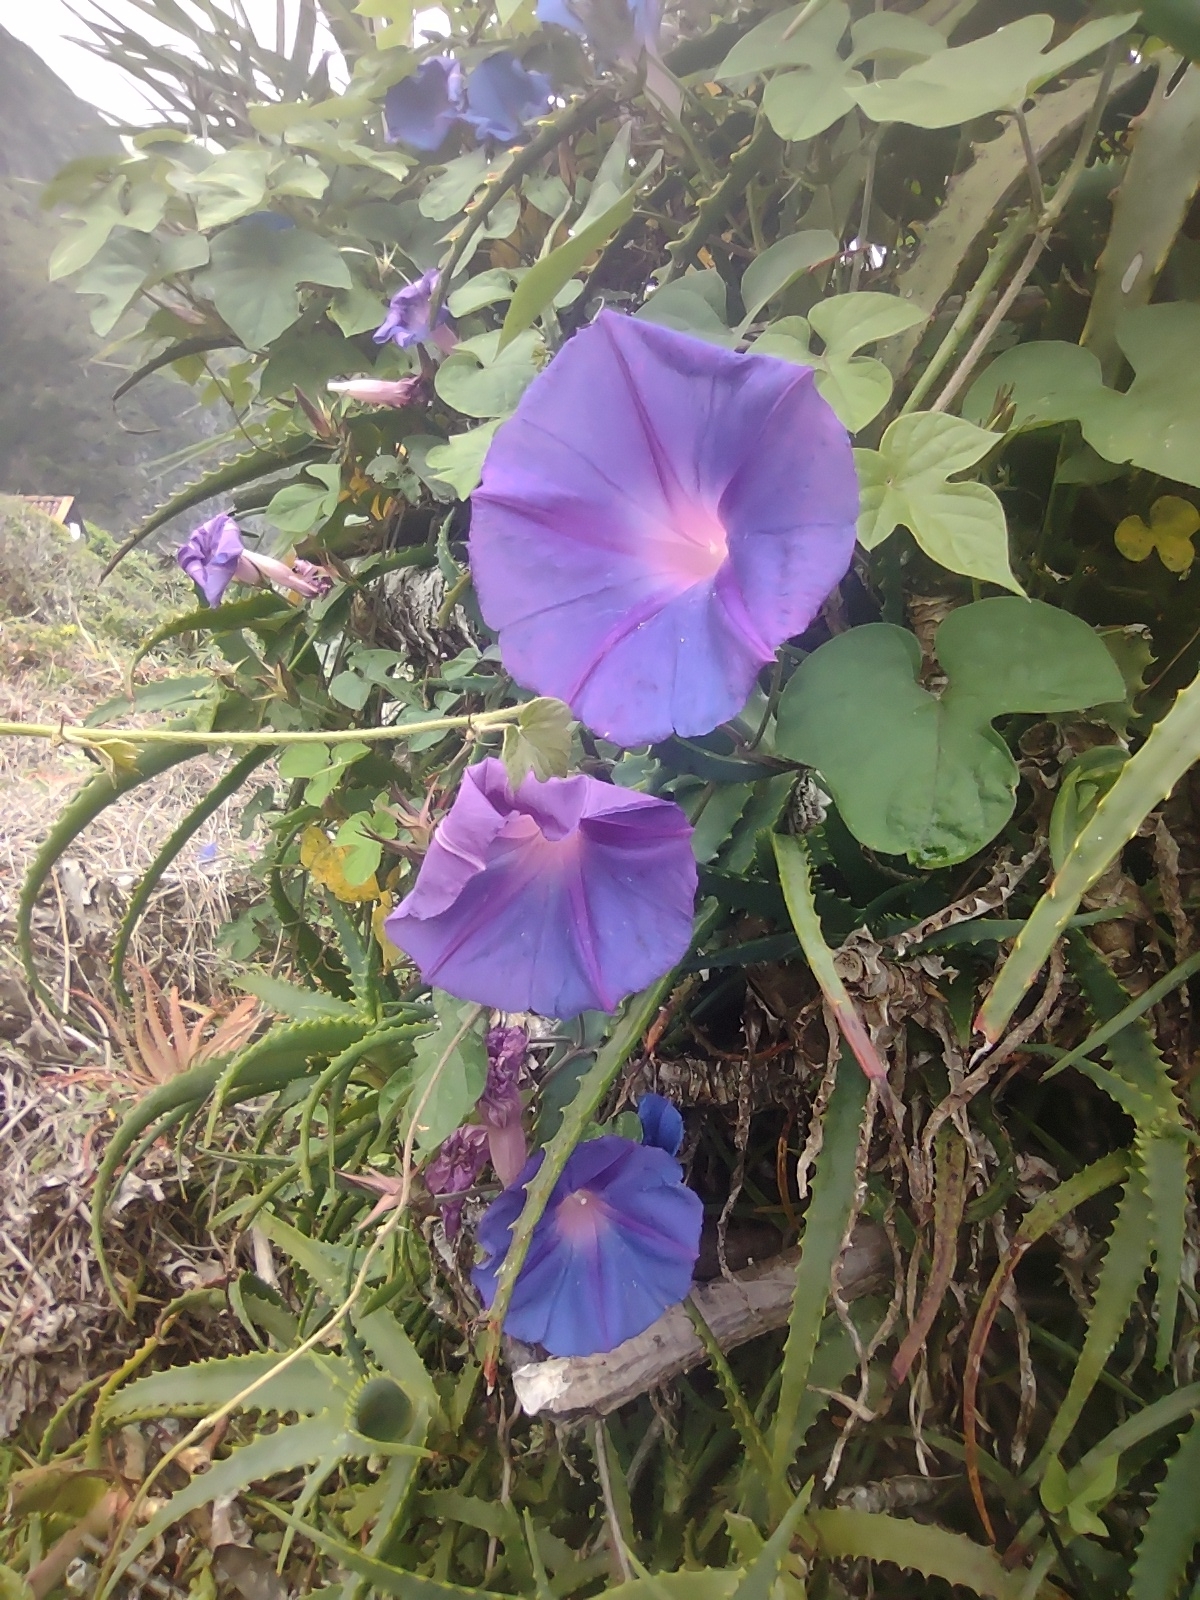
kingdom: Plantae
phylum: Tracheophyta
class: Magnoliopsida
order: Solanales
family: Convolvulaceae
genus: Ipomoea
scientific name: Ipomoea indica
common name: Blue dawnflower
